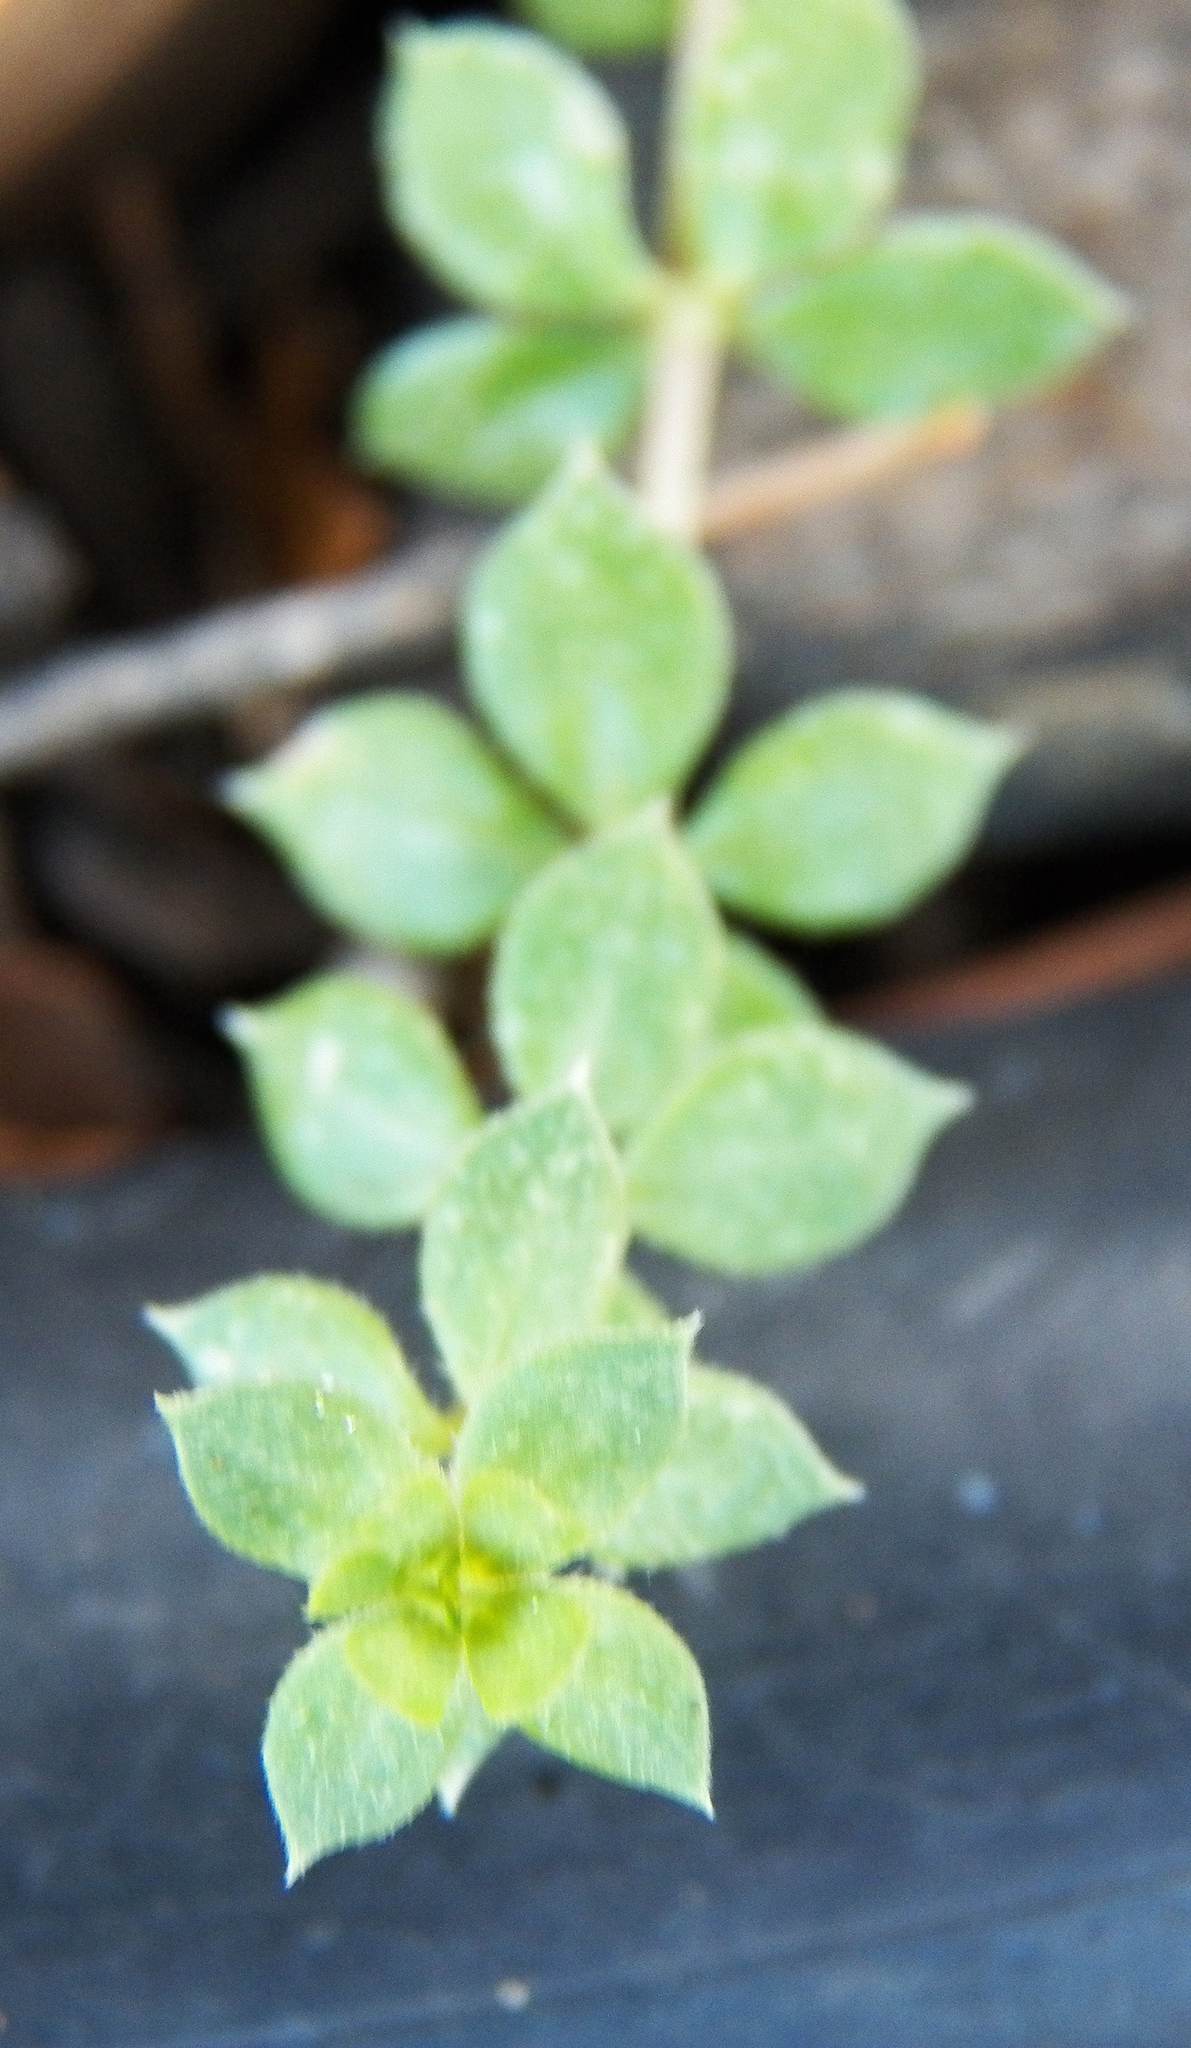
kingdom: Plantae
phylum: Tracheophyta
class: Magnoliopsida
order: Gentianales
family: Rubiaceae
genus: Sherardia
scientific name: Sherardia arvensis
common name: Field madder
